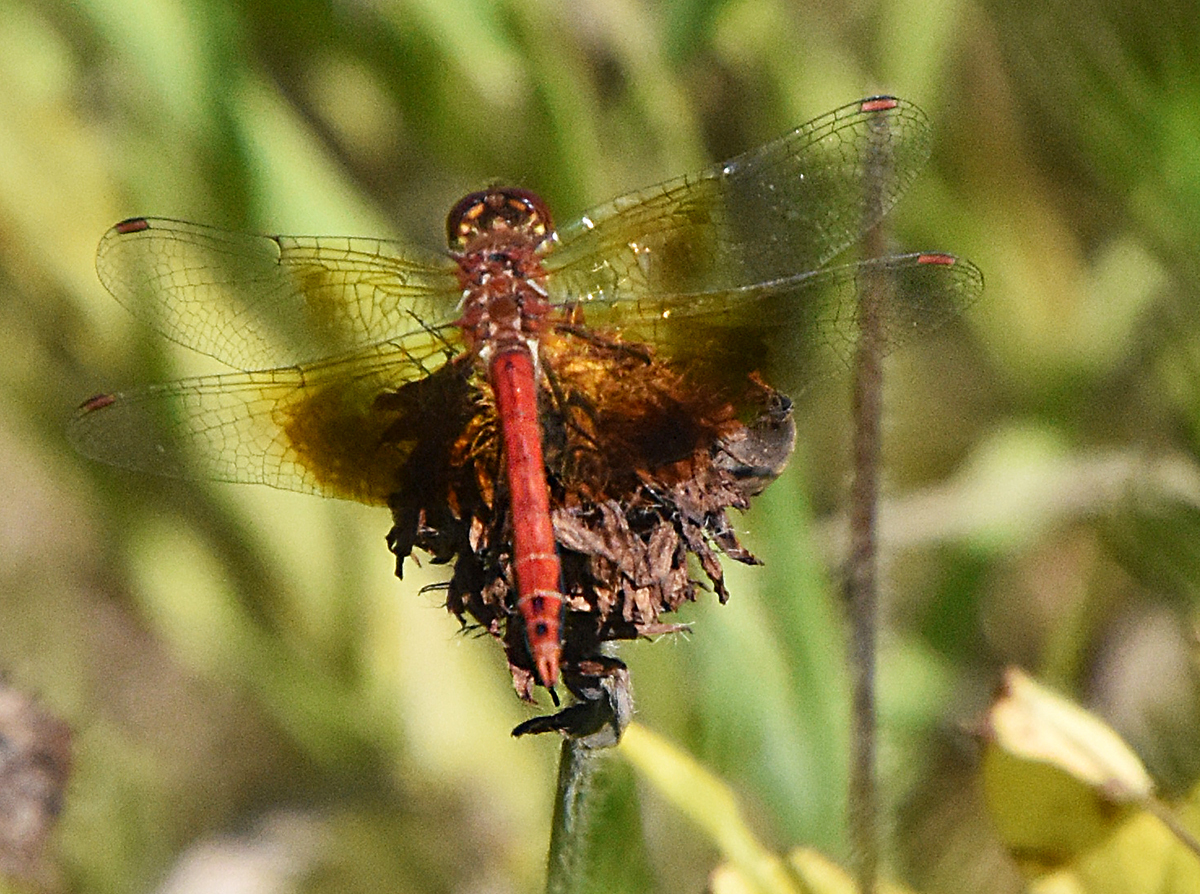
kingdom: Animalia
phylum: Arthropoda
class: Insecta
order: Odonata
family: Libellulidae
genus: Sympetrum
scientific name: Sympetrum semicinctum
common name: Band-winged meadowhawk
